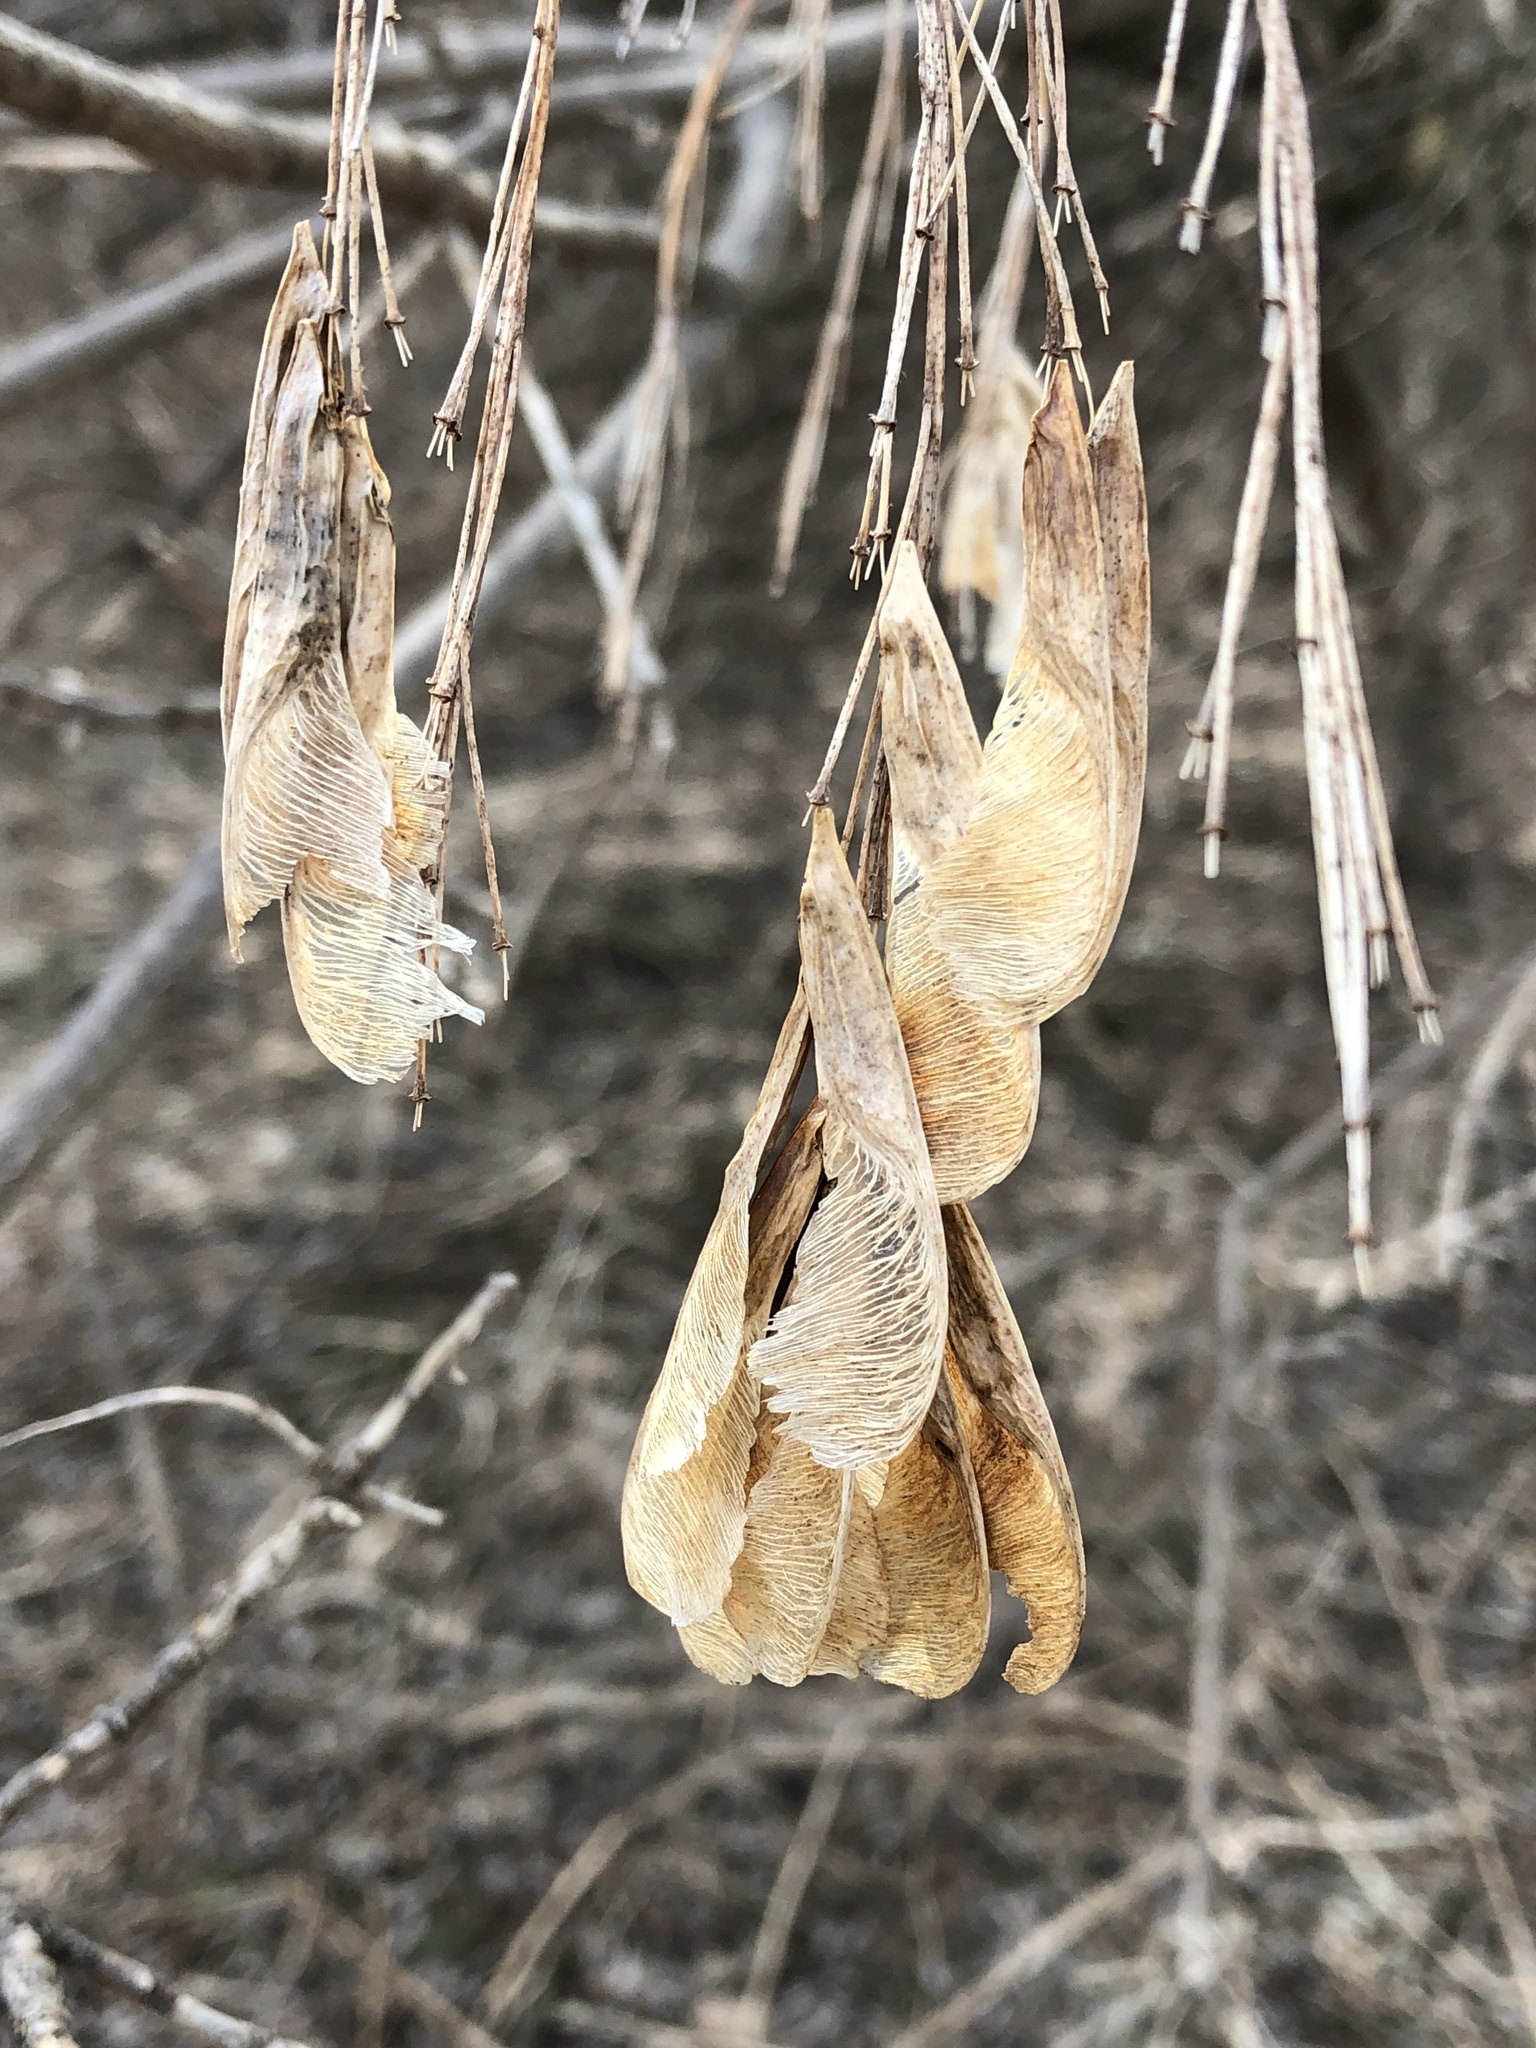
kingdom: Plantae
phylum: Tracheophyta
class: Magnoliopsida
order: Sapindales
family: Sapindaceae
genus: Acer
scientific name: Acer negundo
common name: Ashleaf maple
